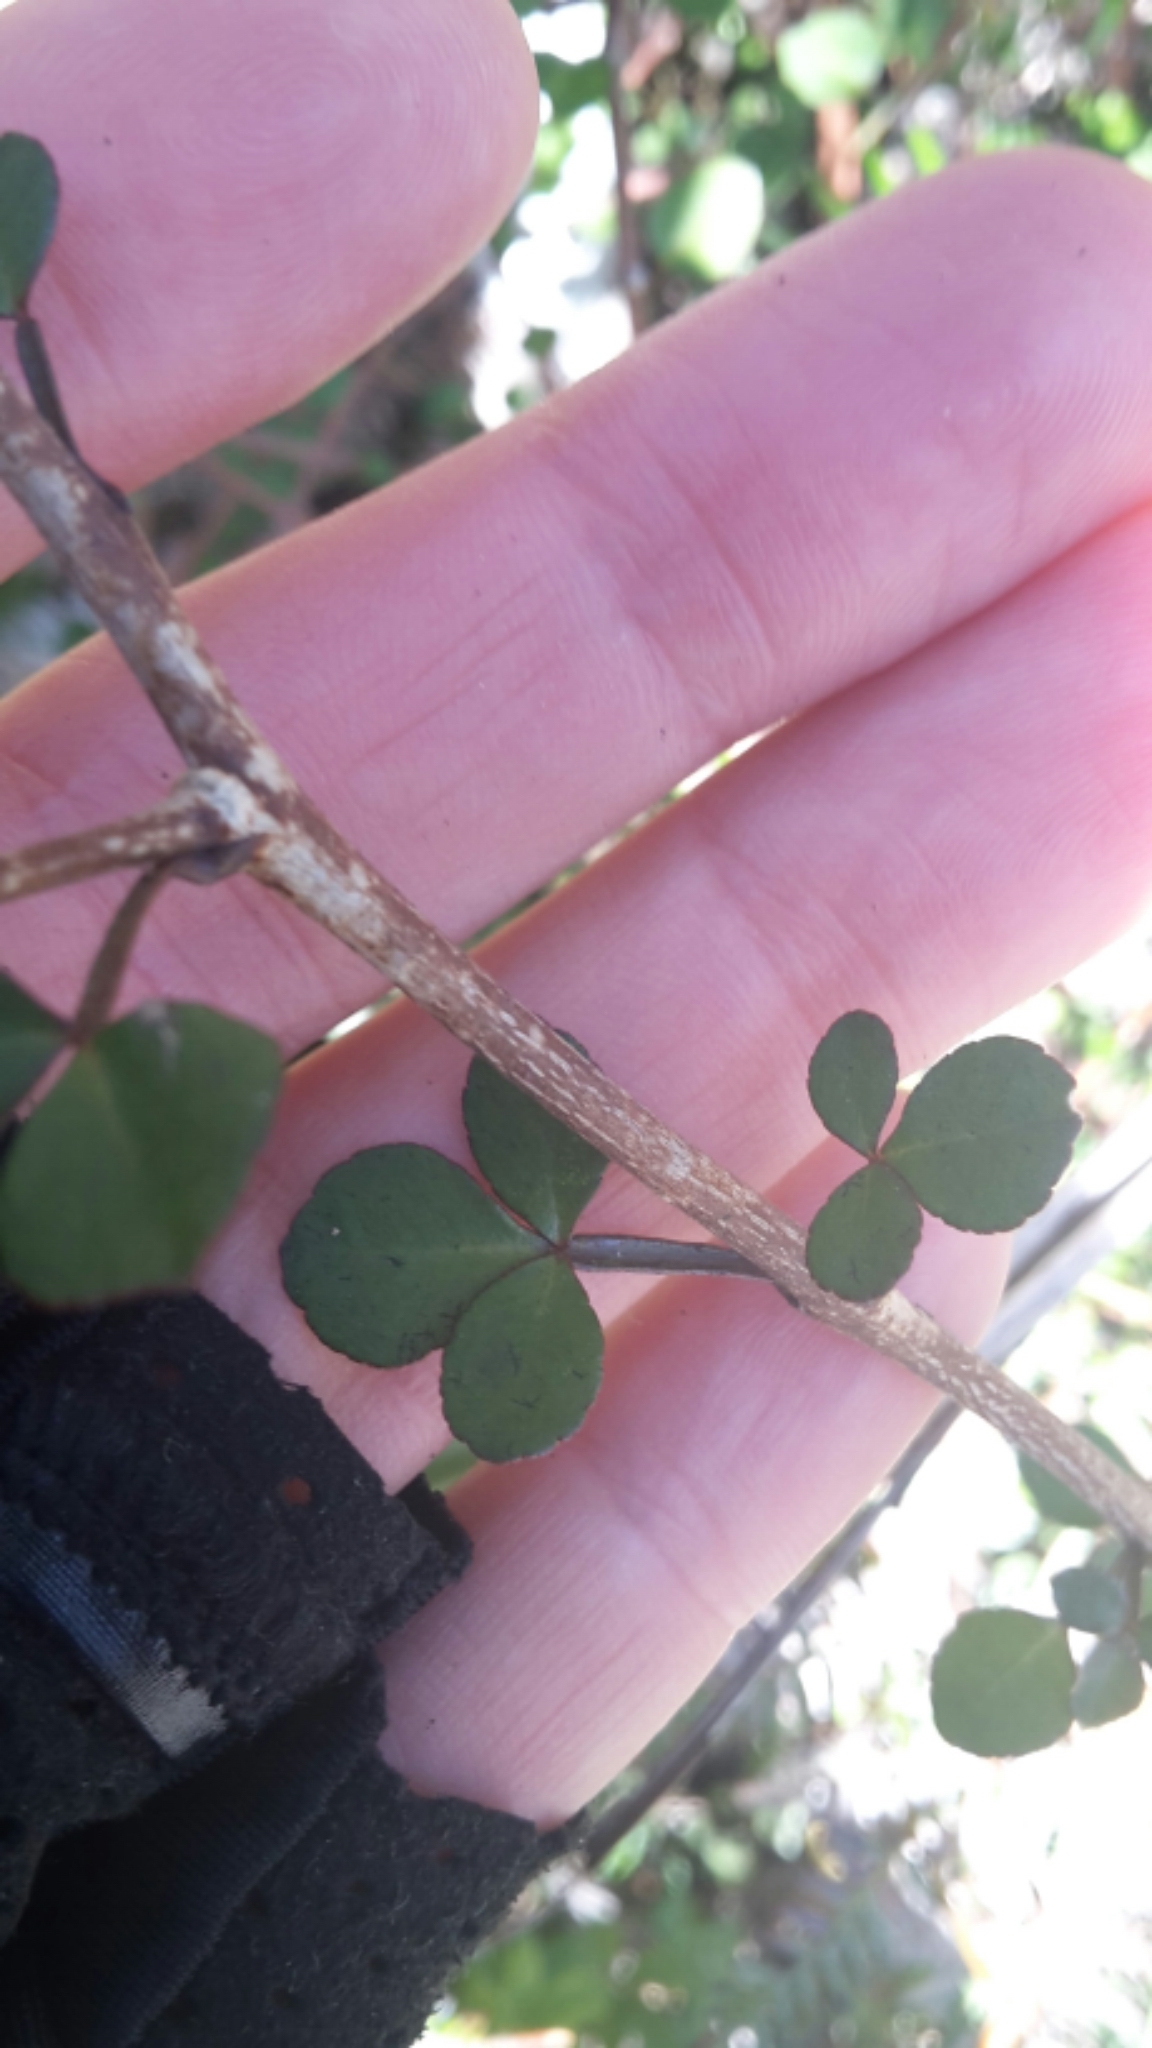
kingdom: Plantae
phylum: Tracheophyta
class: Magnoliopsida
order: Sapindales
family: Rutaceae
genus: Melicope
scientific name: Melicope simplex
